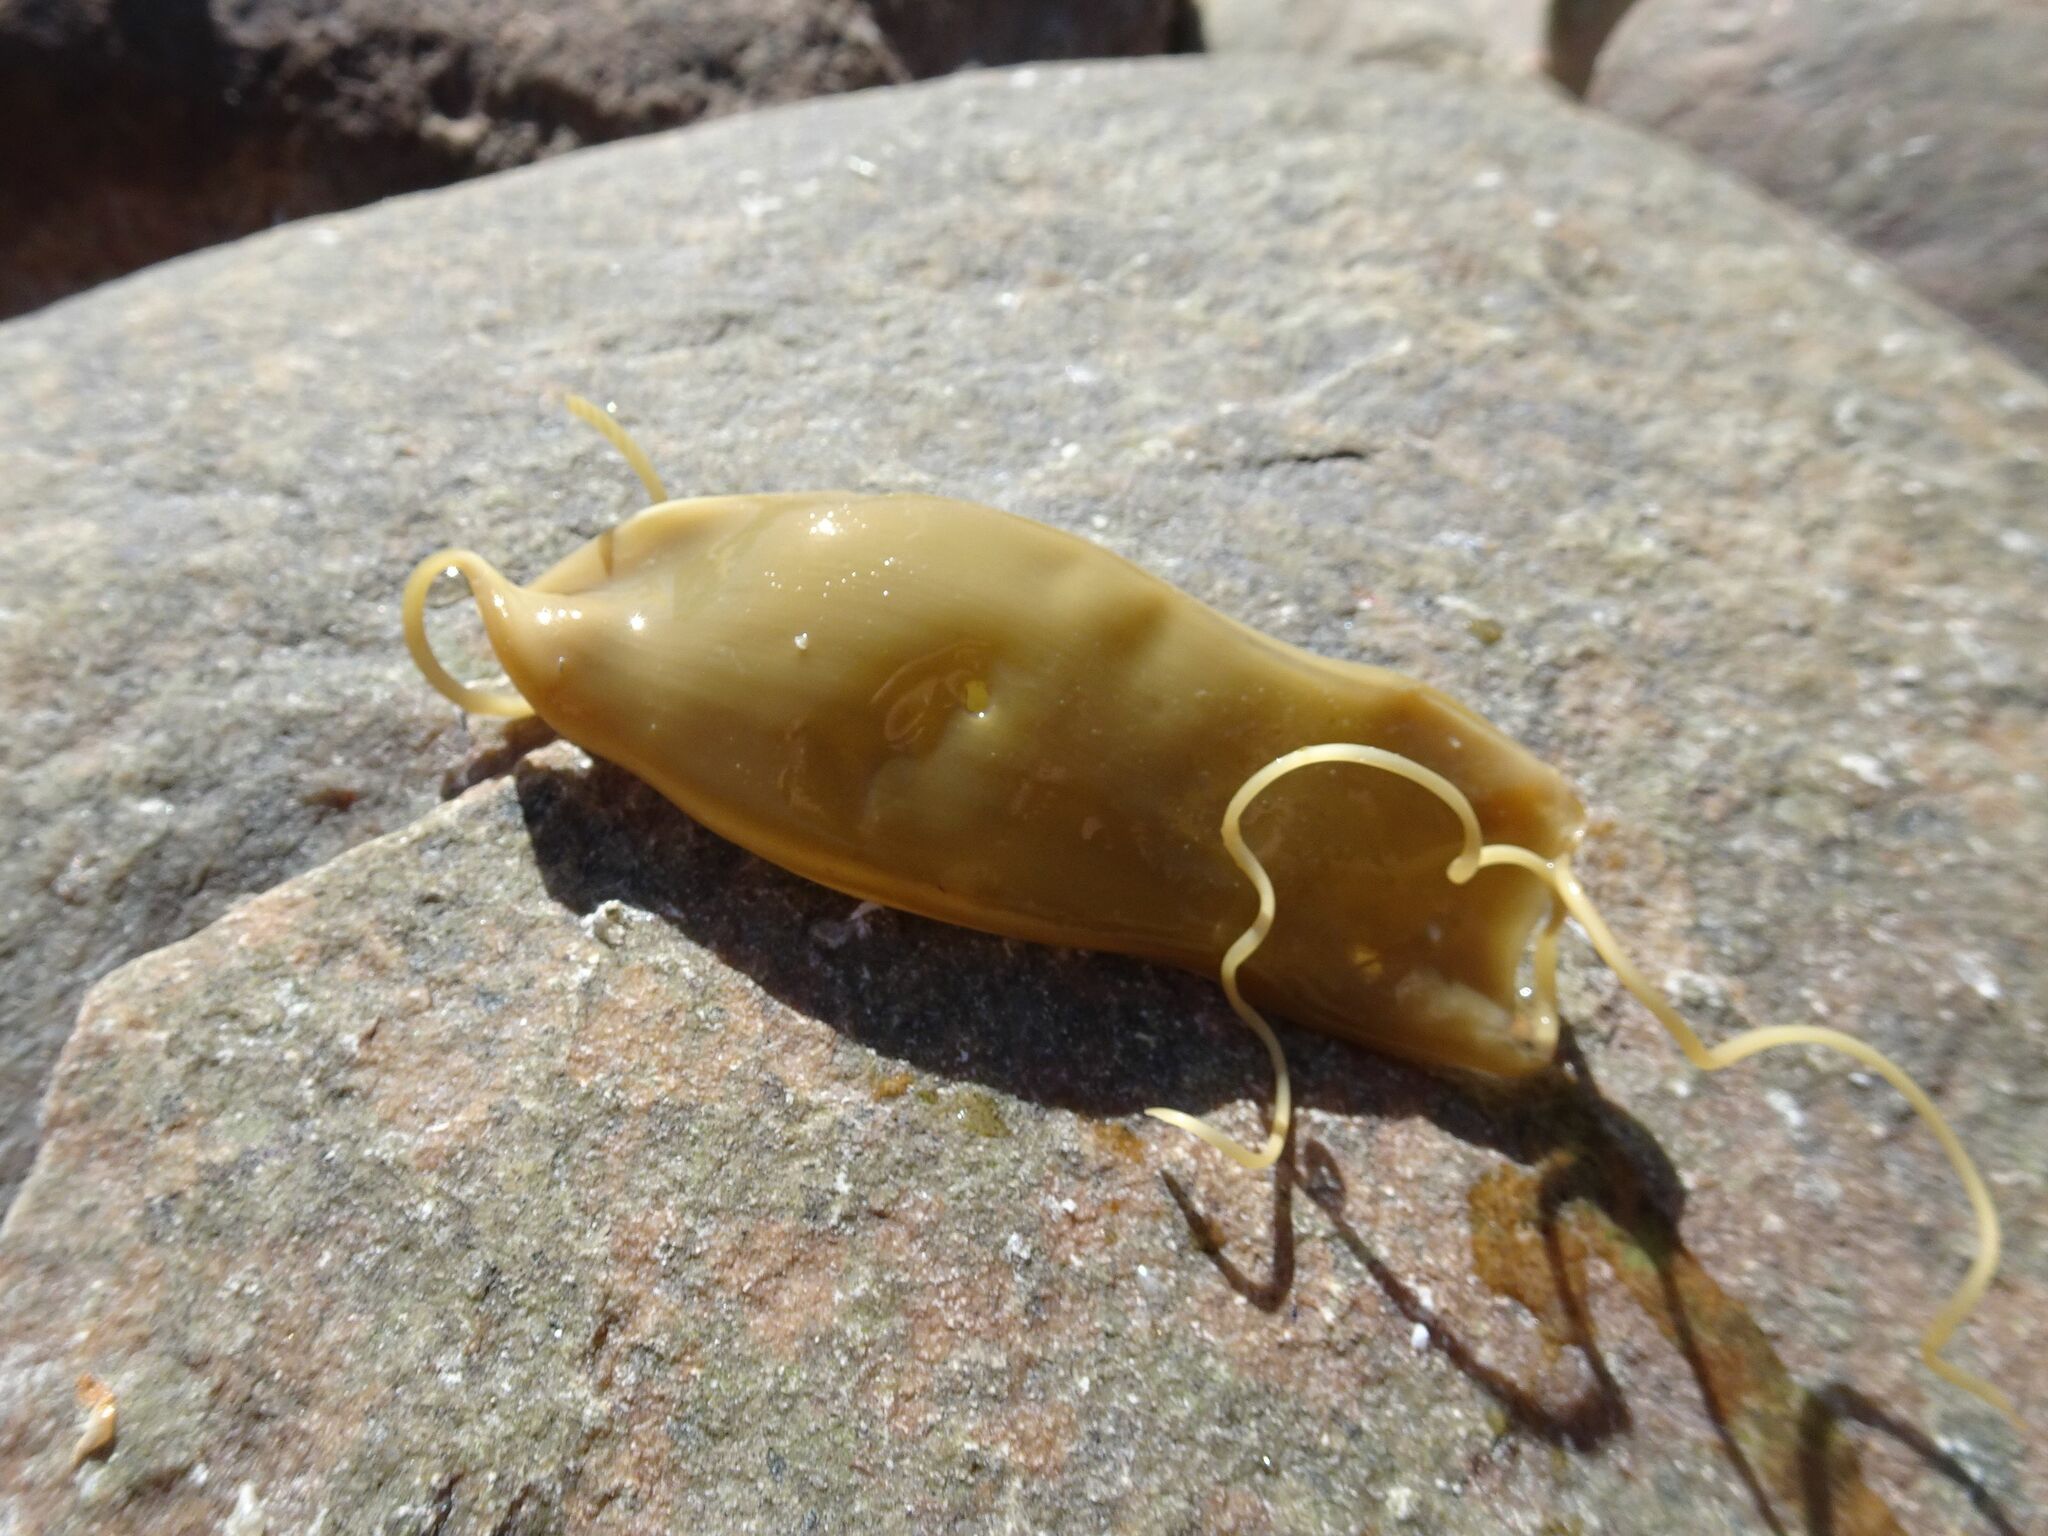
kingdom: Animalia
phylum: Chordata
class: Elasmobranchii
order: Carcharhiniformes
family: Scyliorhinidae
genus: Poroderma
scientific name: Poroderma pantherinum
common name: Leopard catshark
